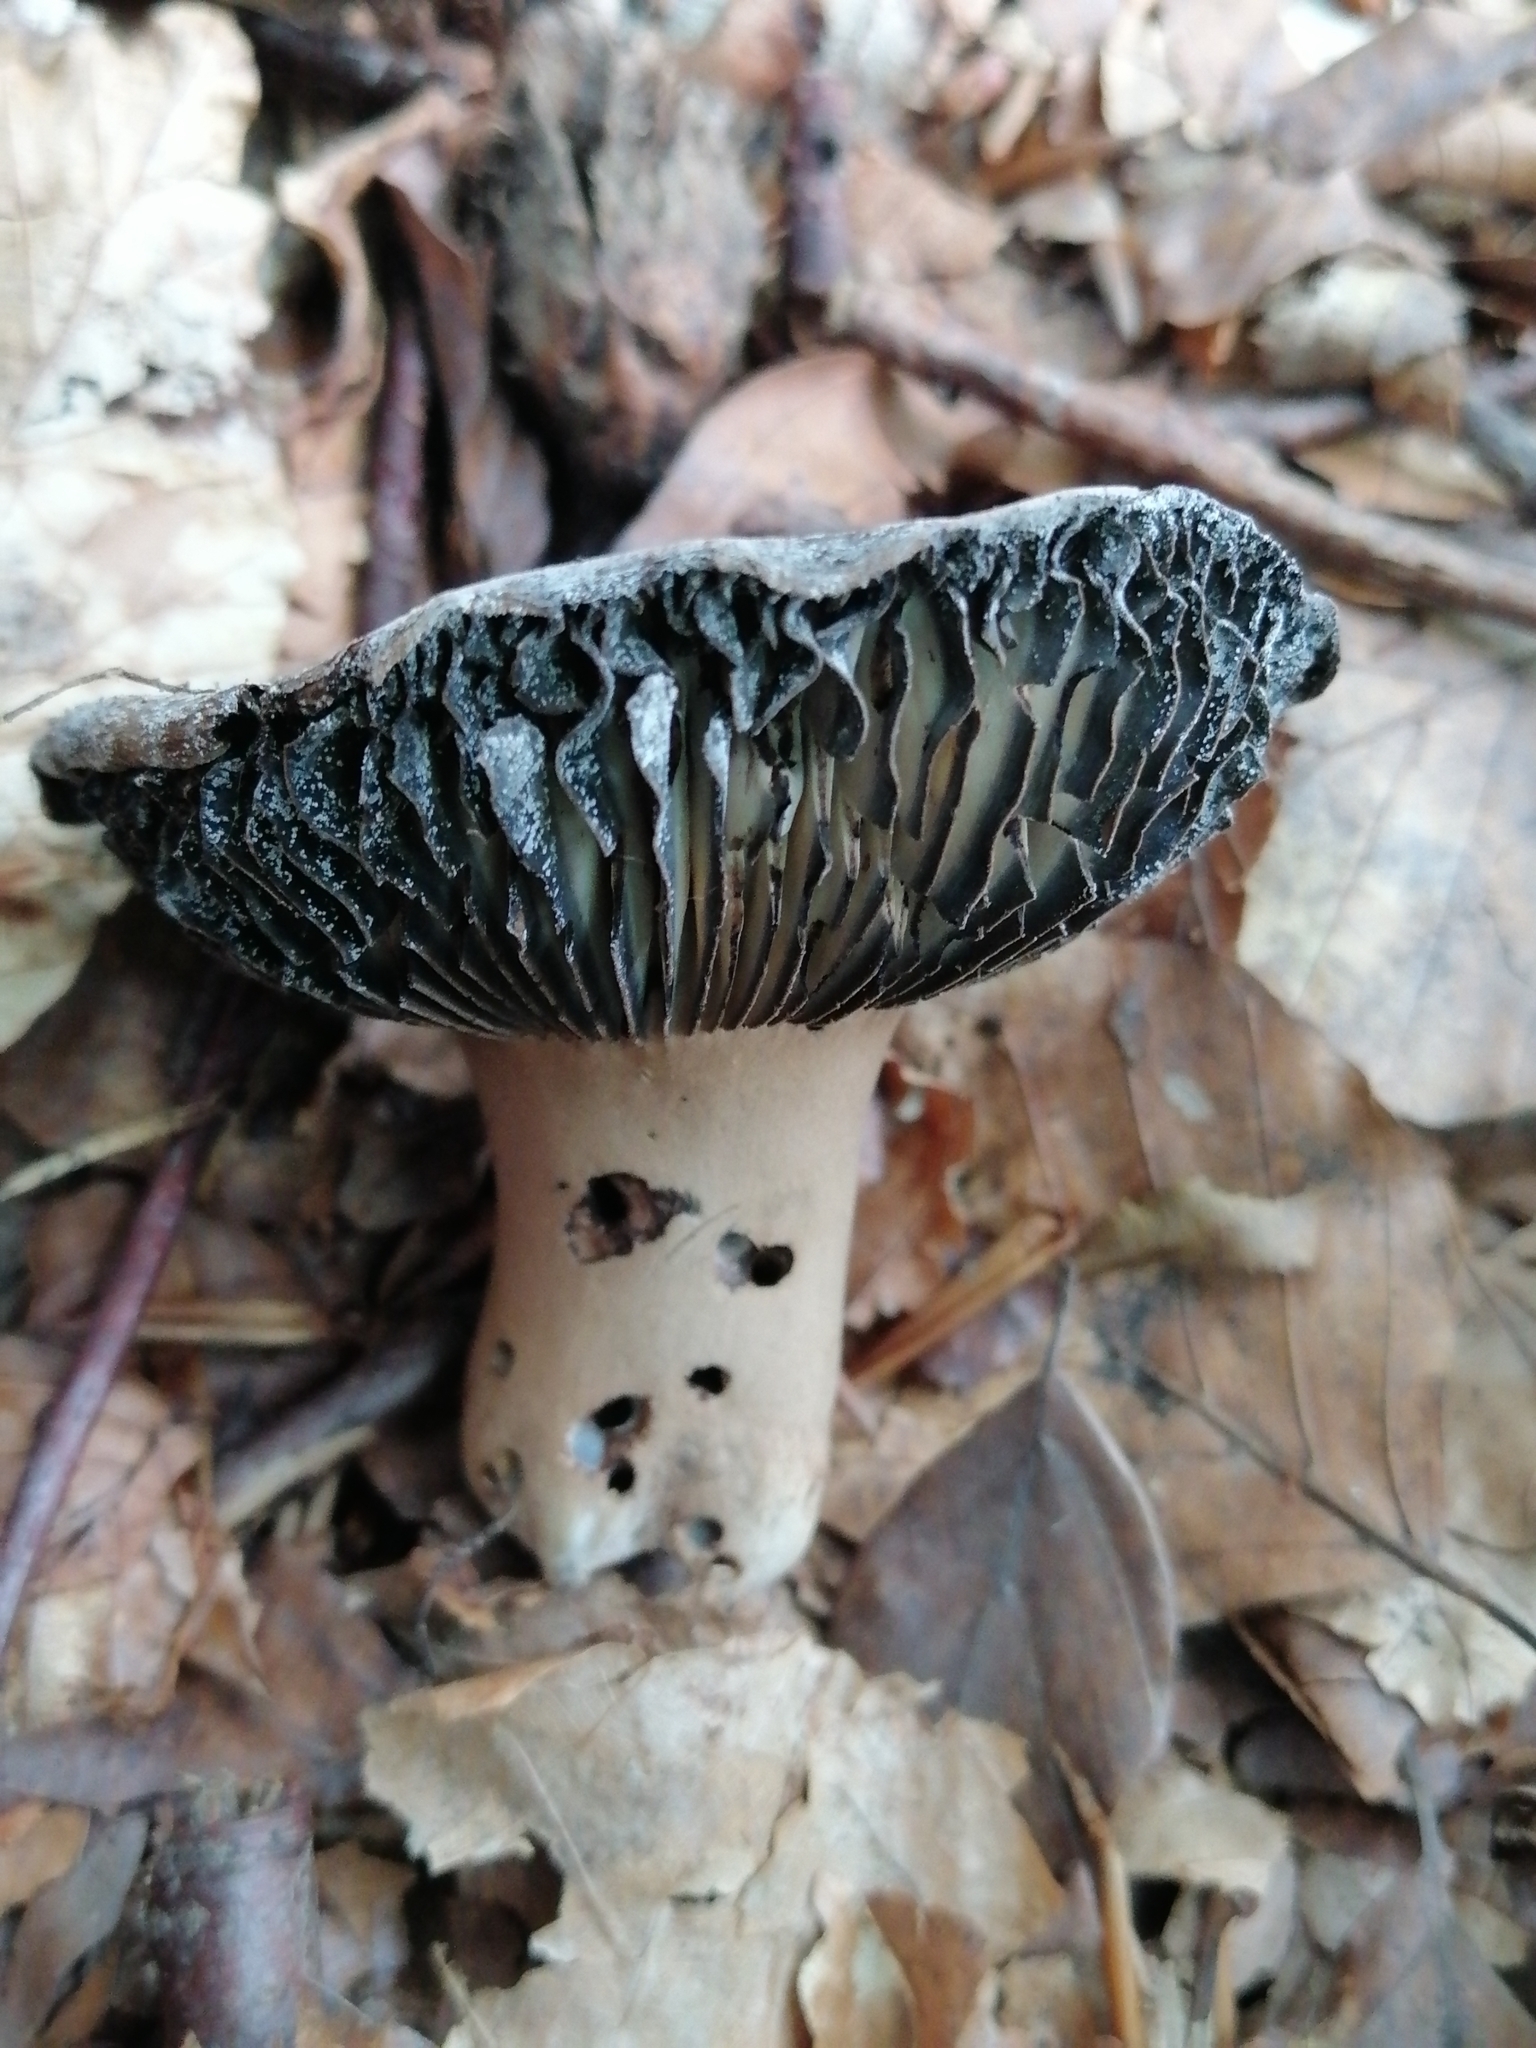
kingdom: Fungi
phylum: Basidiomycota
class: Agaricomycetes
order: Russulales
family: Russulaceae
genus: Russula
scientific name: Russula adusta
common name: Winecork brittlegill
